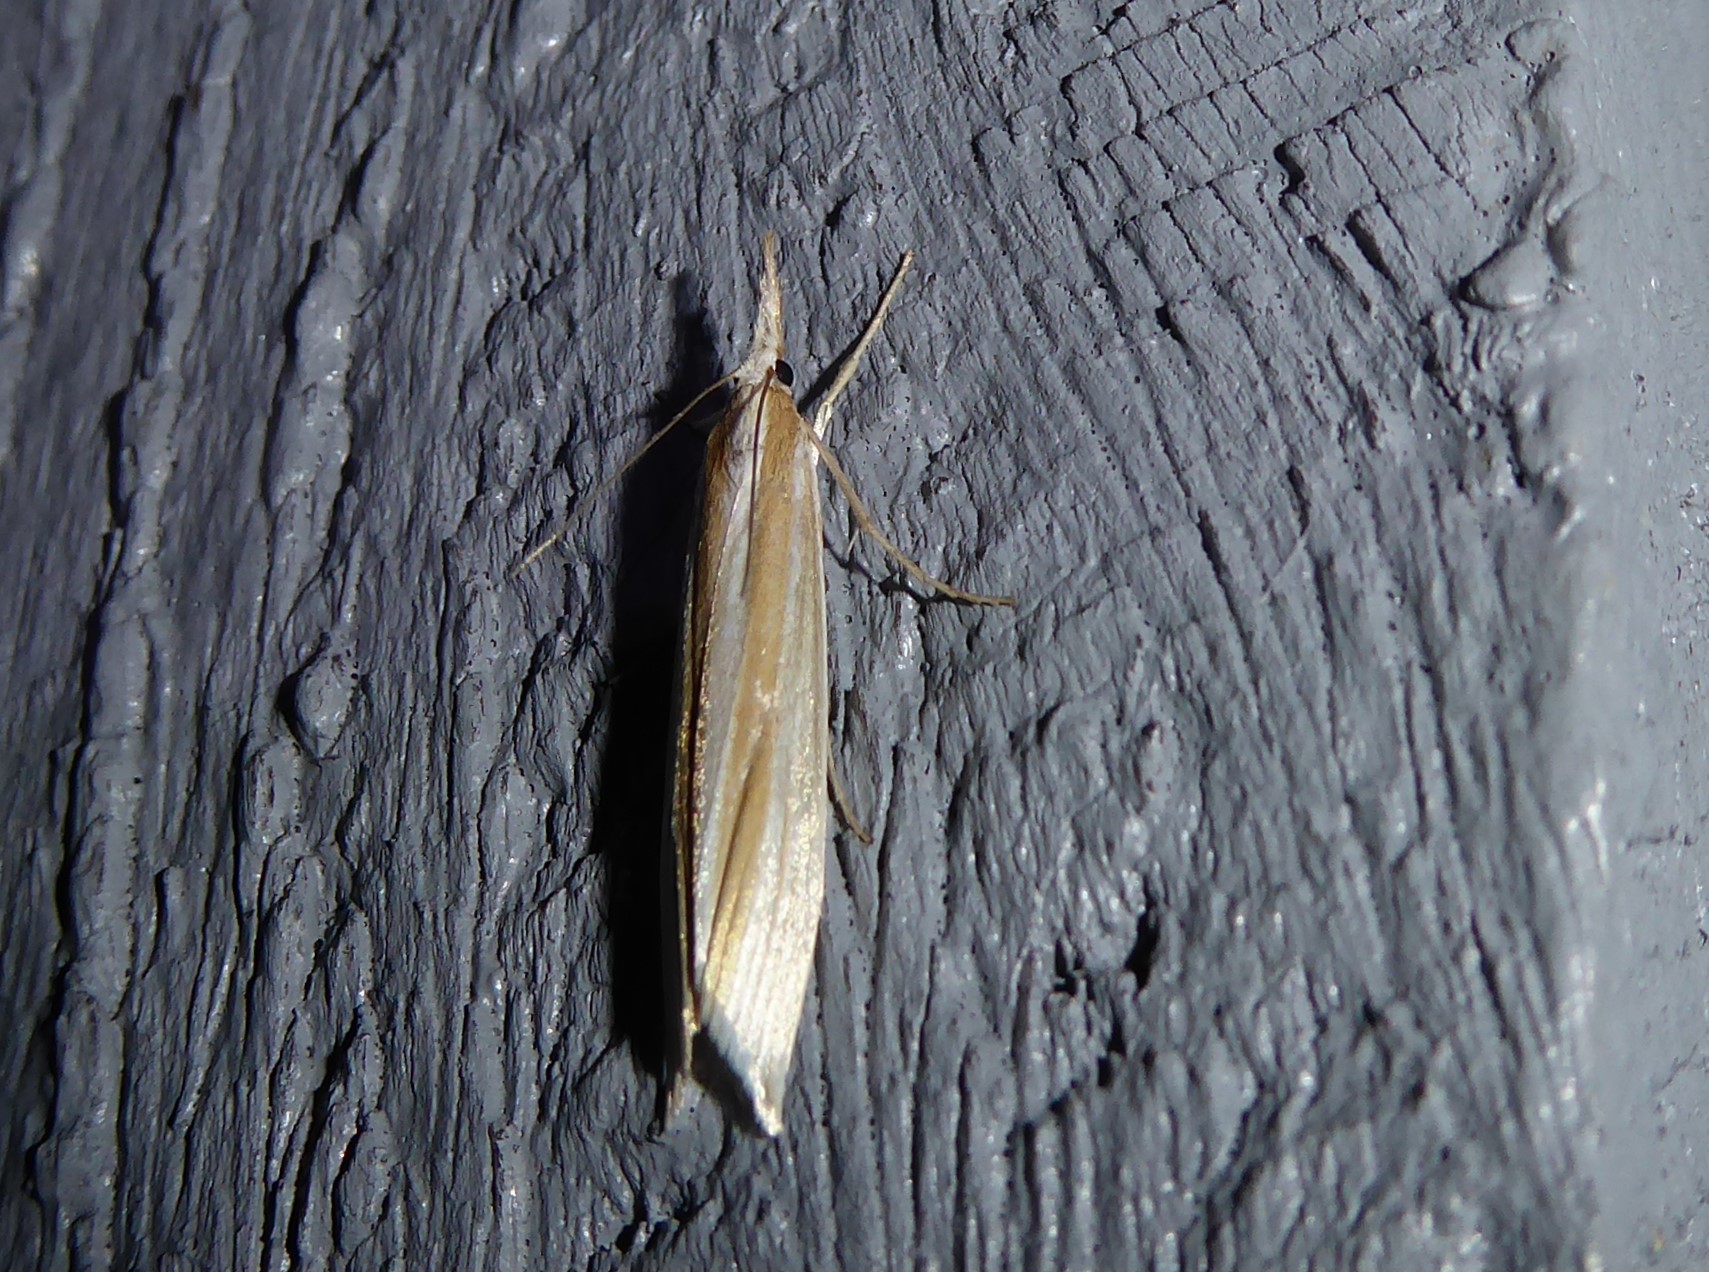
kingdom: Animalia
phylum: Arthropoda
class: Insecta
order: Lepidoptera
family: Crambidae
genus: Orocrambus
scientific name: Orocrambus angustipennis
